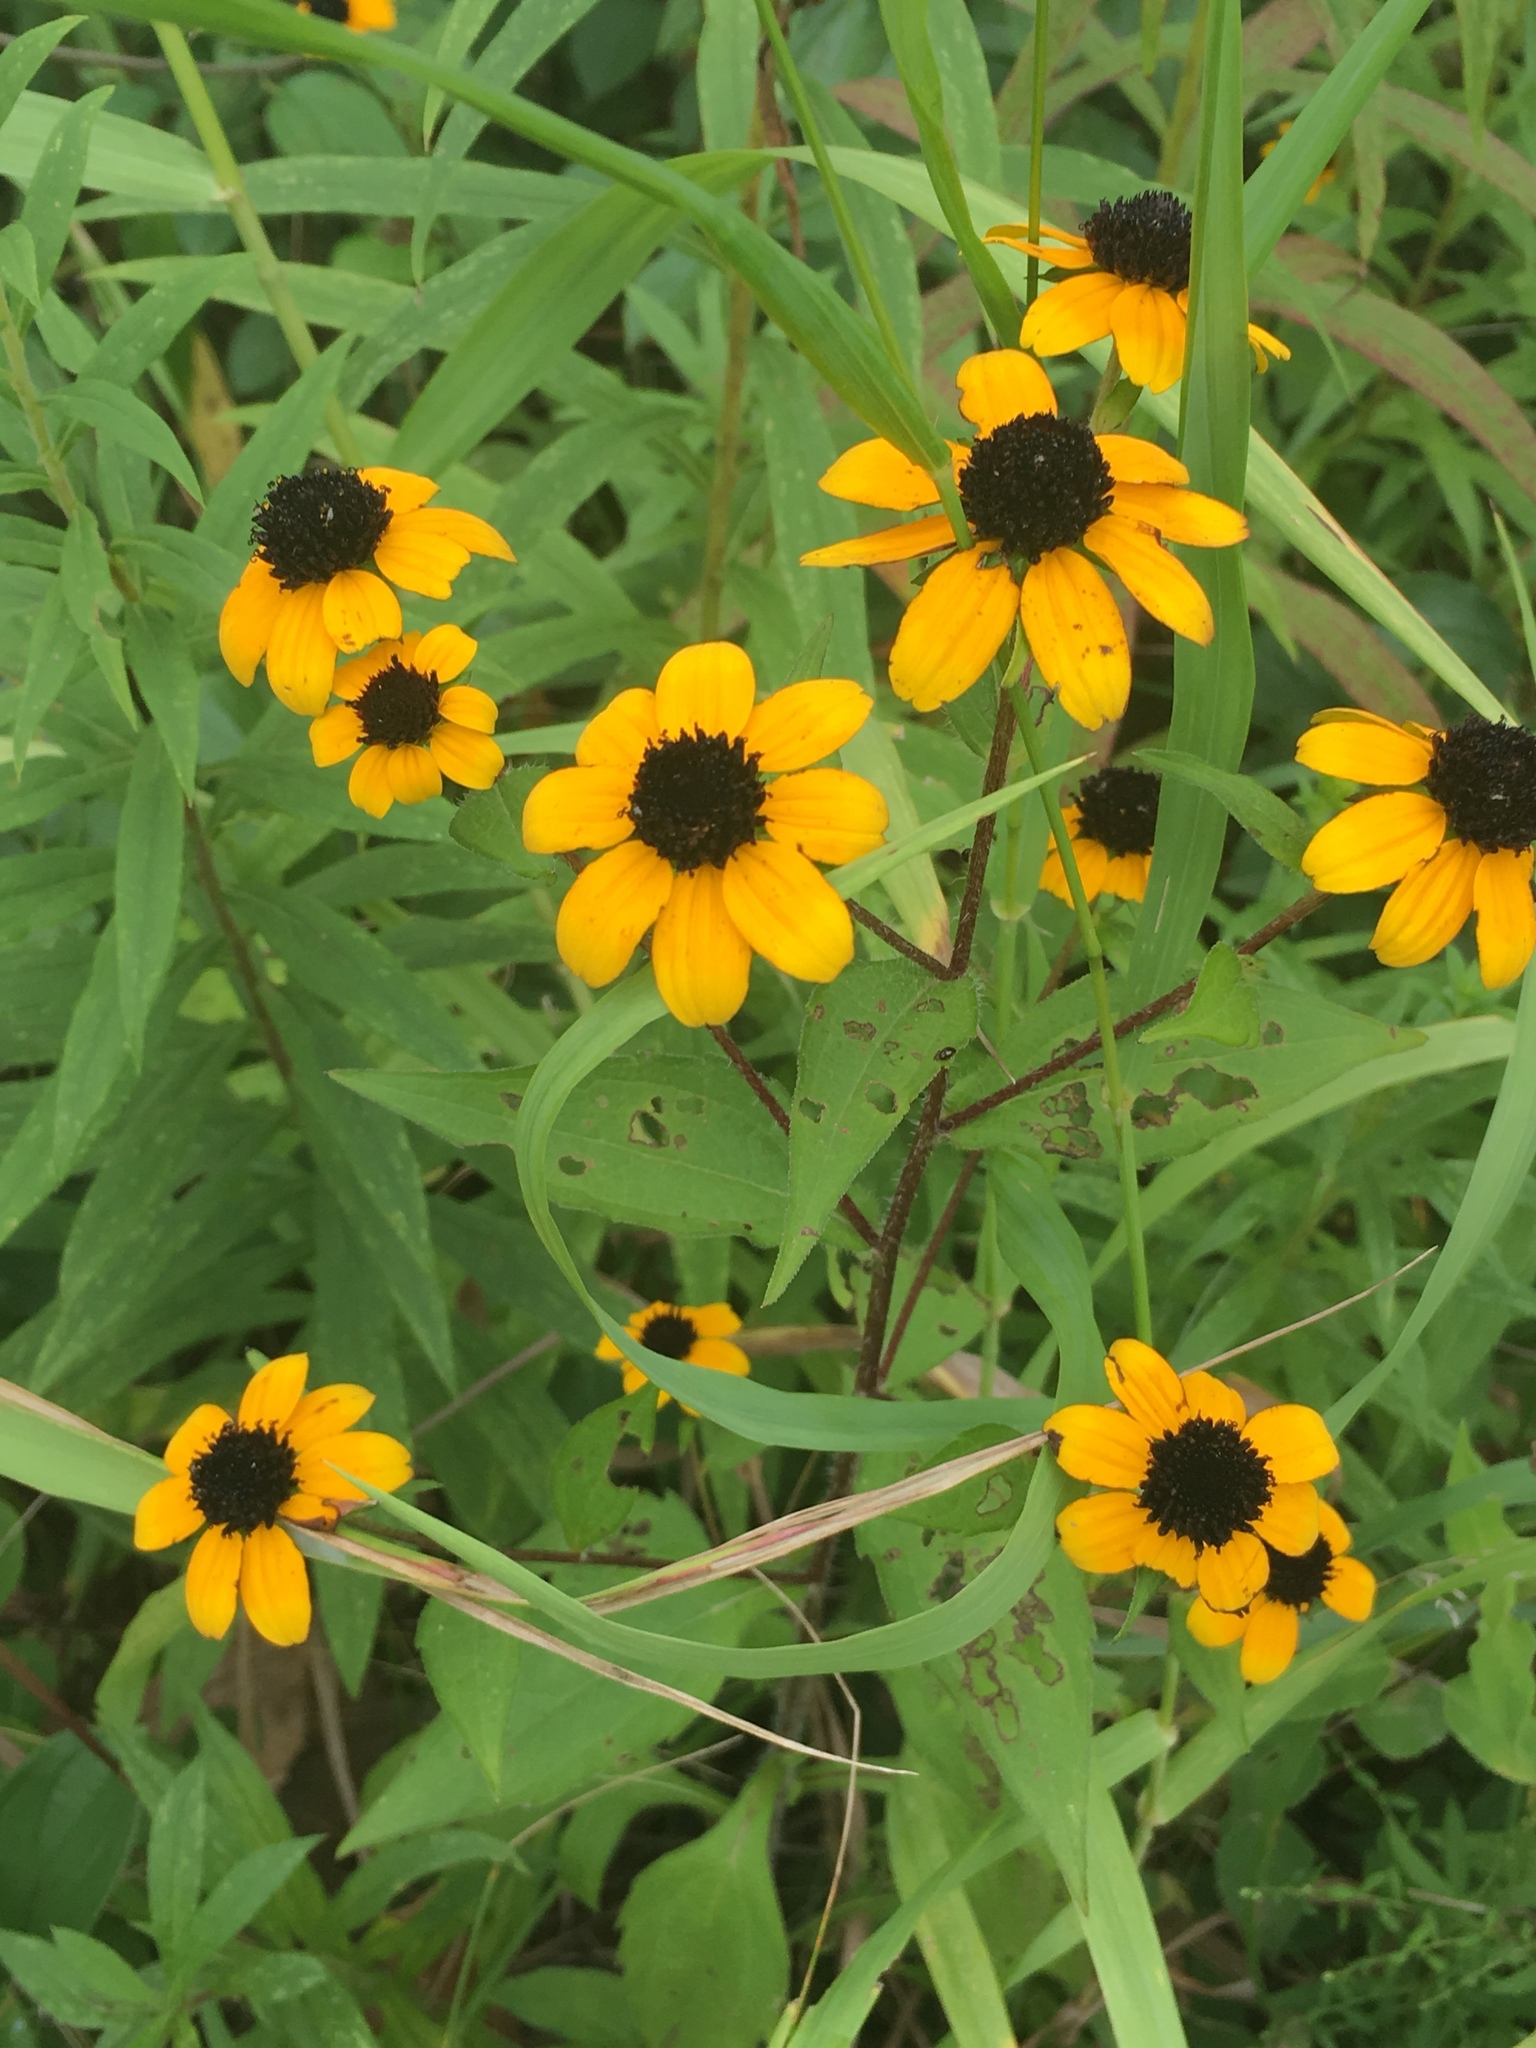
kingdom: Plantae
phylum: Tracheophyta
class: Magnoliopsida
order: Asterales
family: Asteraceae
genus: Rudbeckia
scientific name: Rudbeckia triloba
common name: Thin-leaved coneflower
